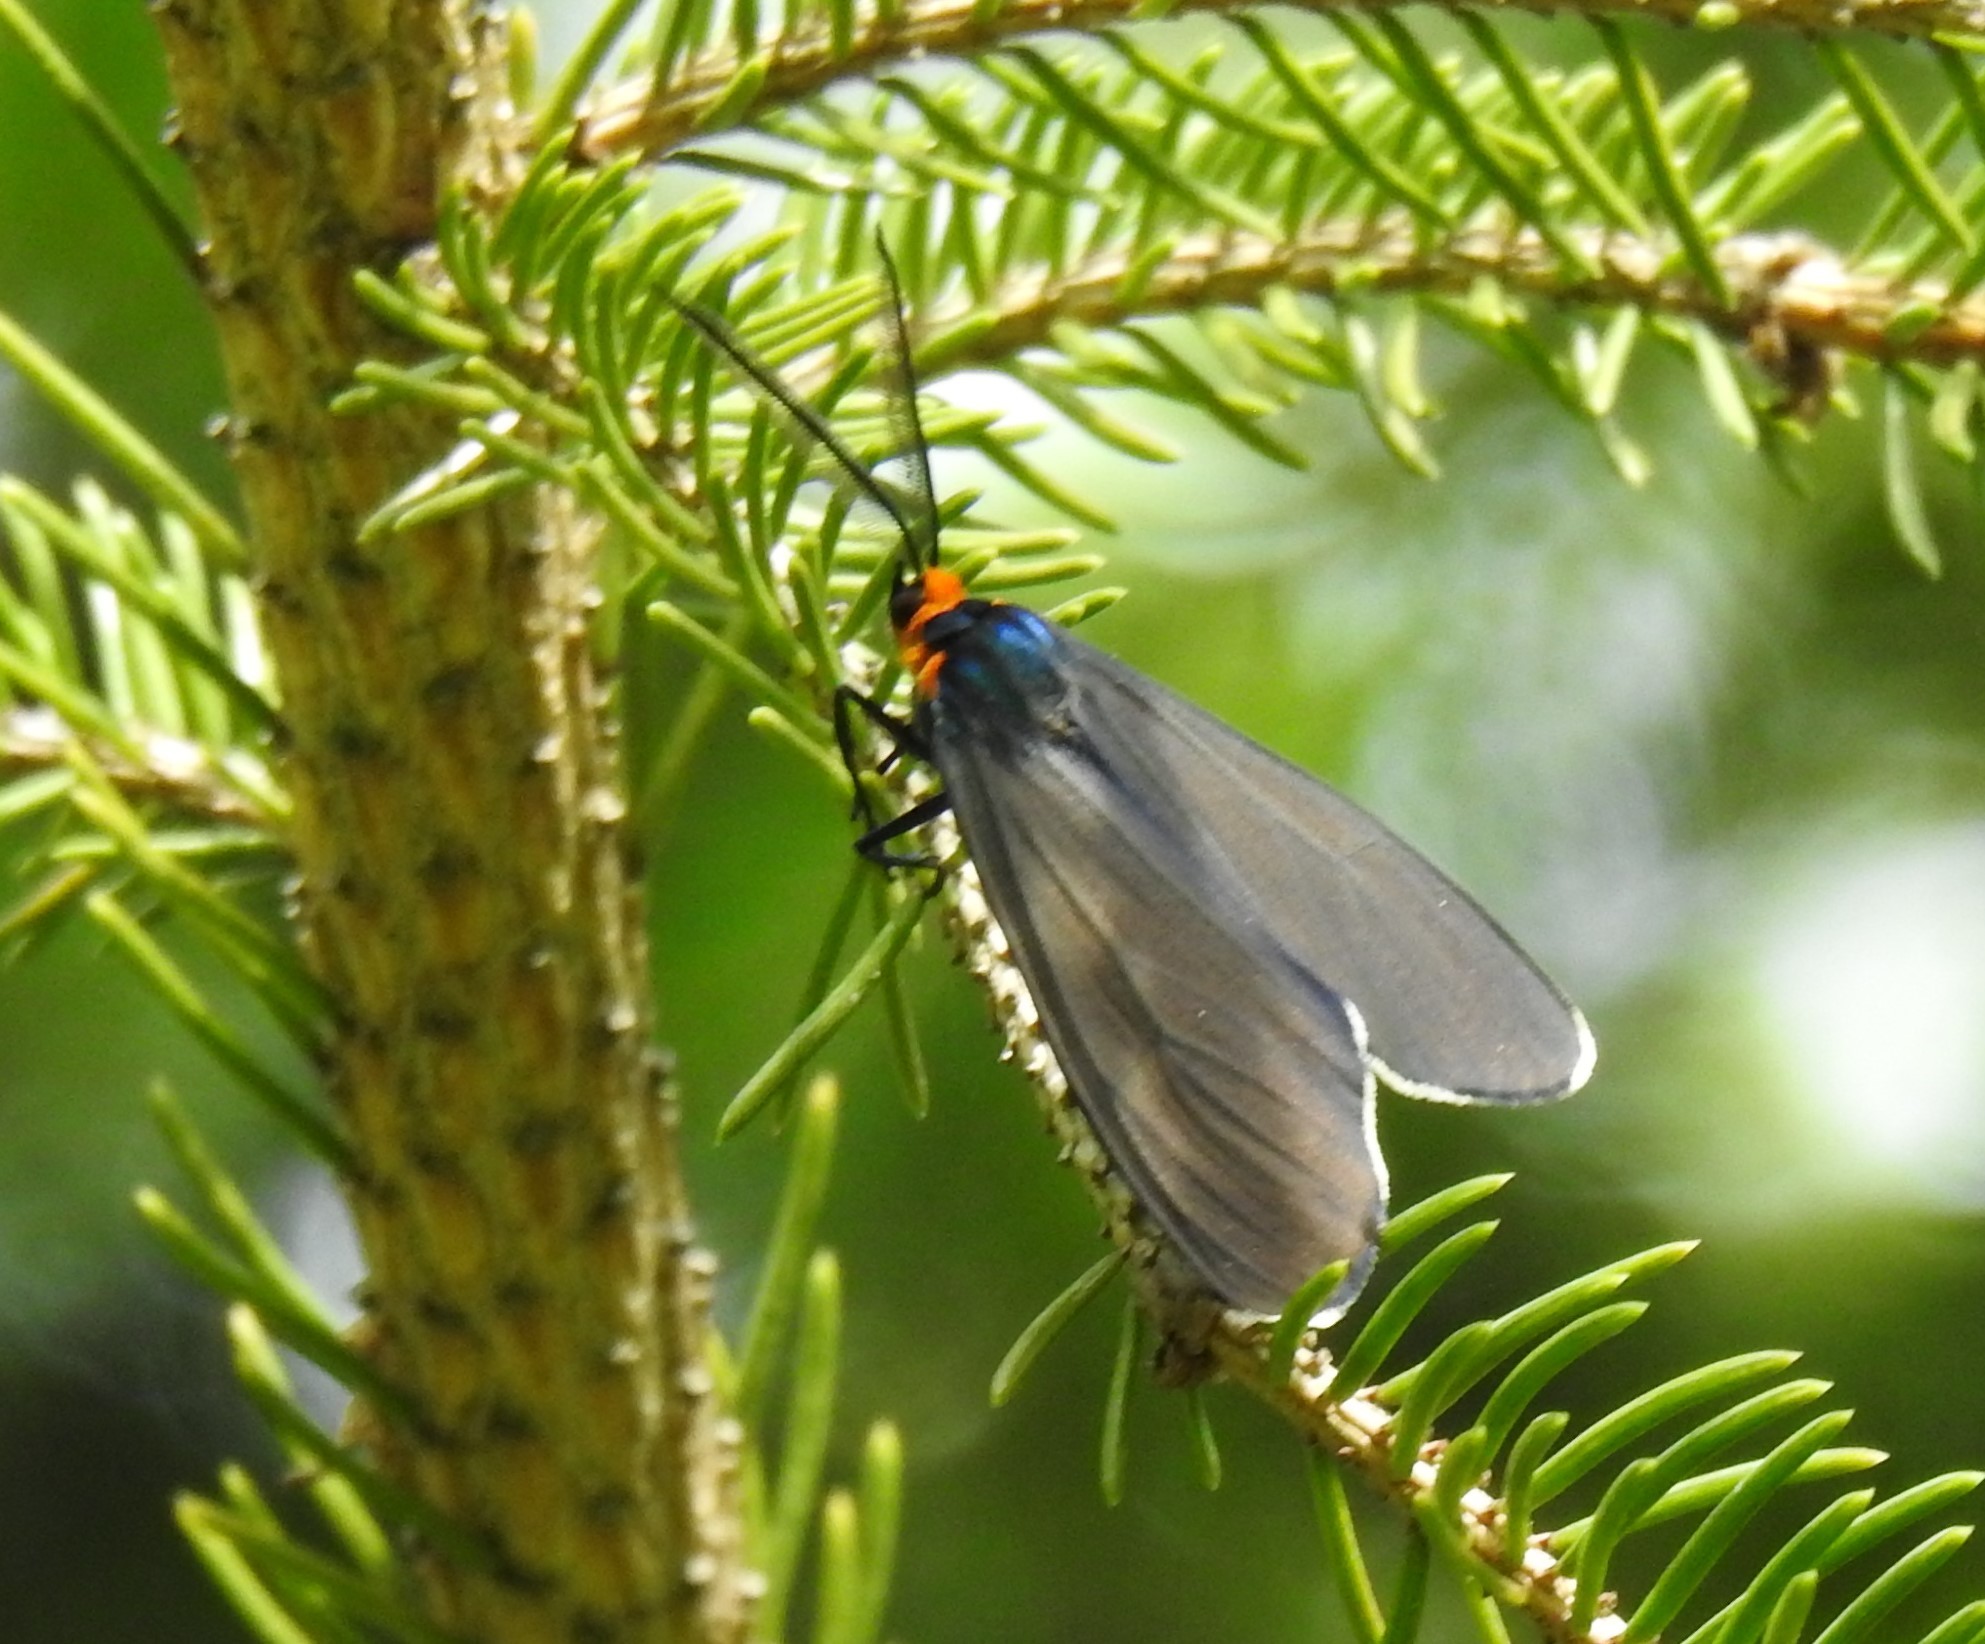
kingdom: Animalia
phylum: Arthropoda
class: Insecta
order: Lepidoptera
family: Erebidae
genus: Ctenucha
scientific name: Ctenucha virginica
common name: Virginia ctenucha moth
